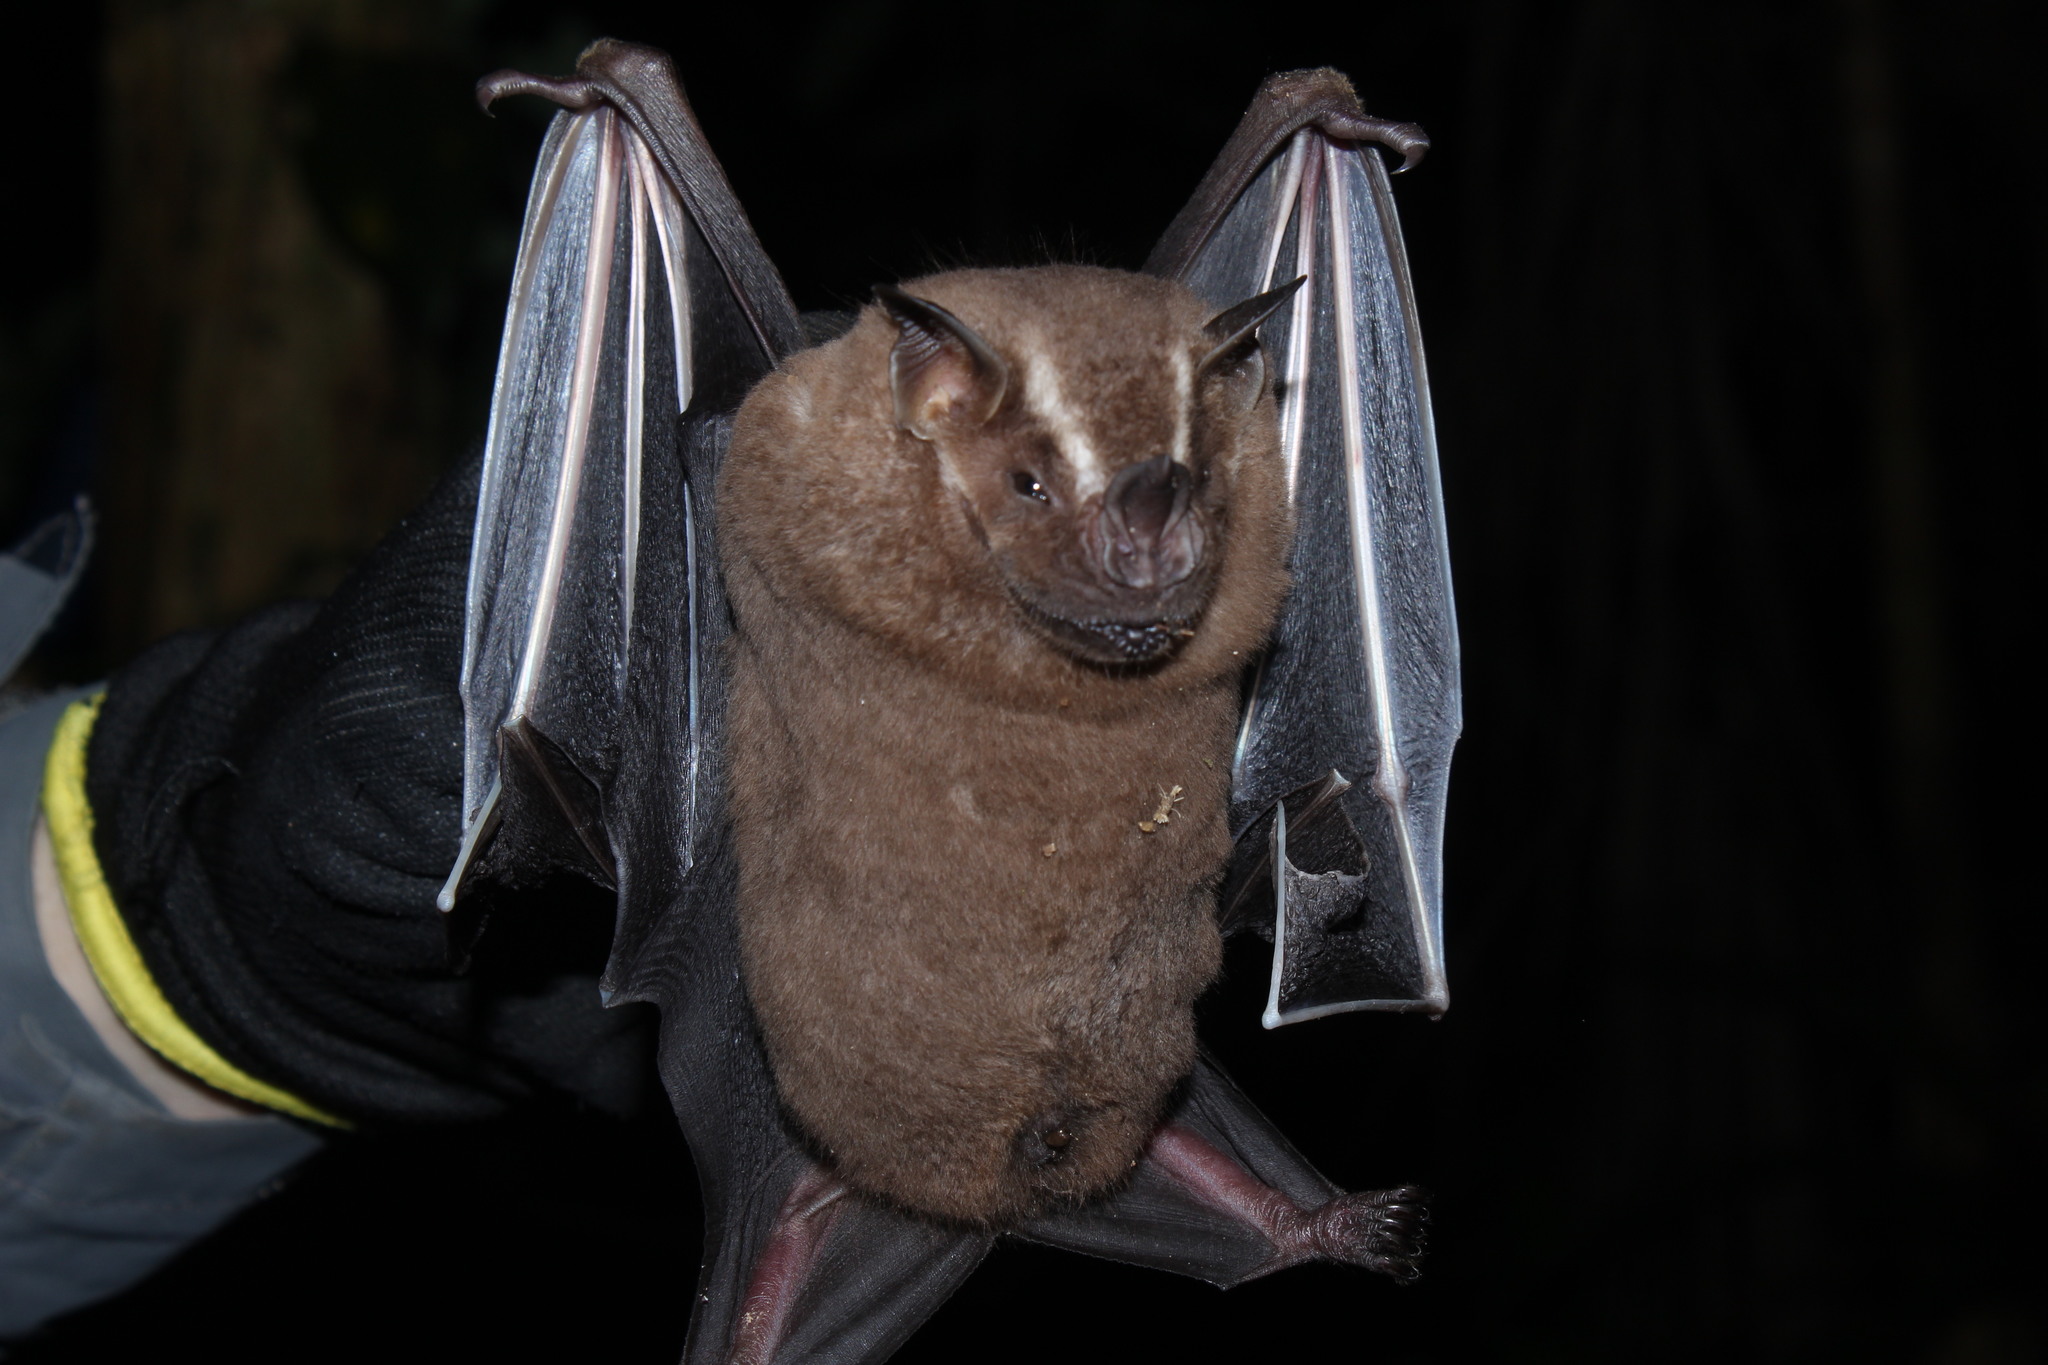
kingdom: Animalia
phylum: Chordata
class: Mammalia
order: Chiroptera
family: Phyllostomidae
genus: Artibeus
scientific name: Artibeus lituratus
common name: Great fruit-eating bat
